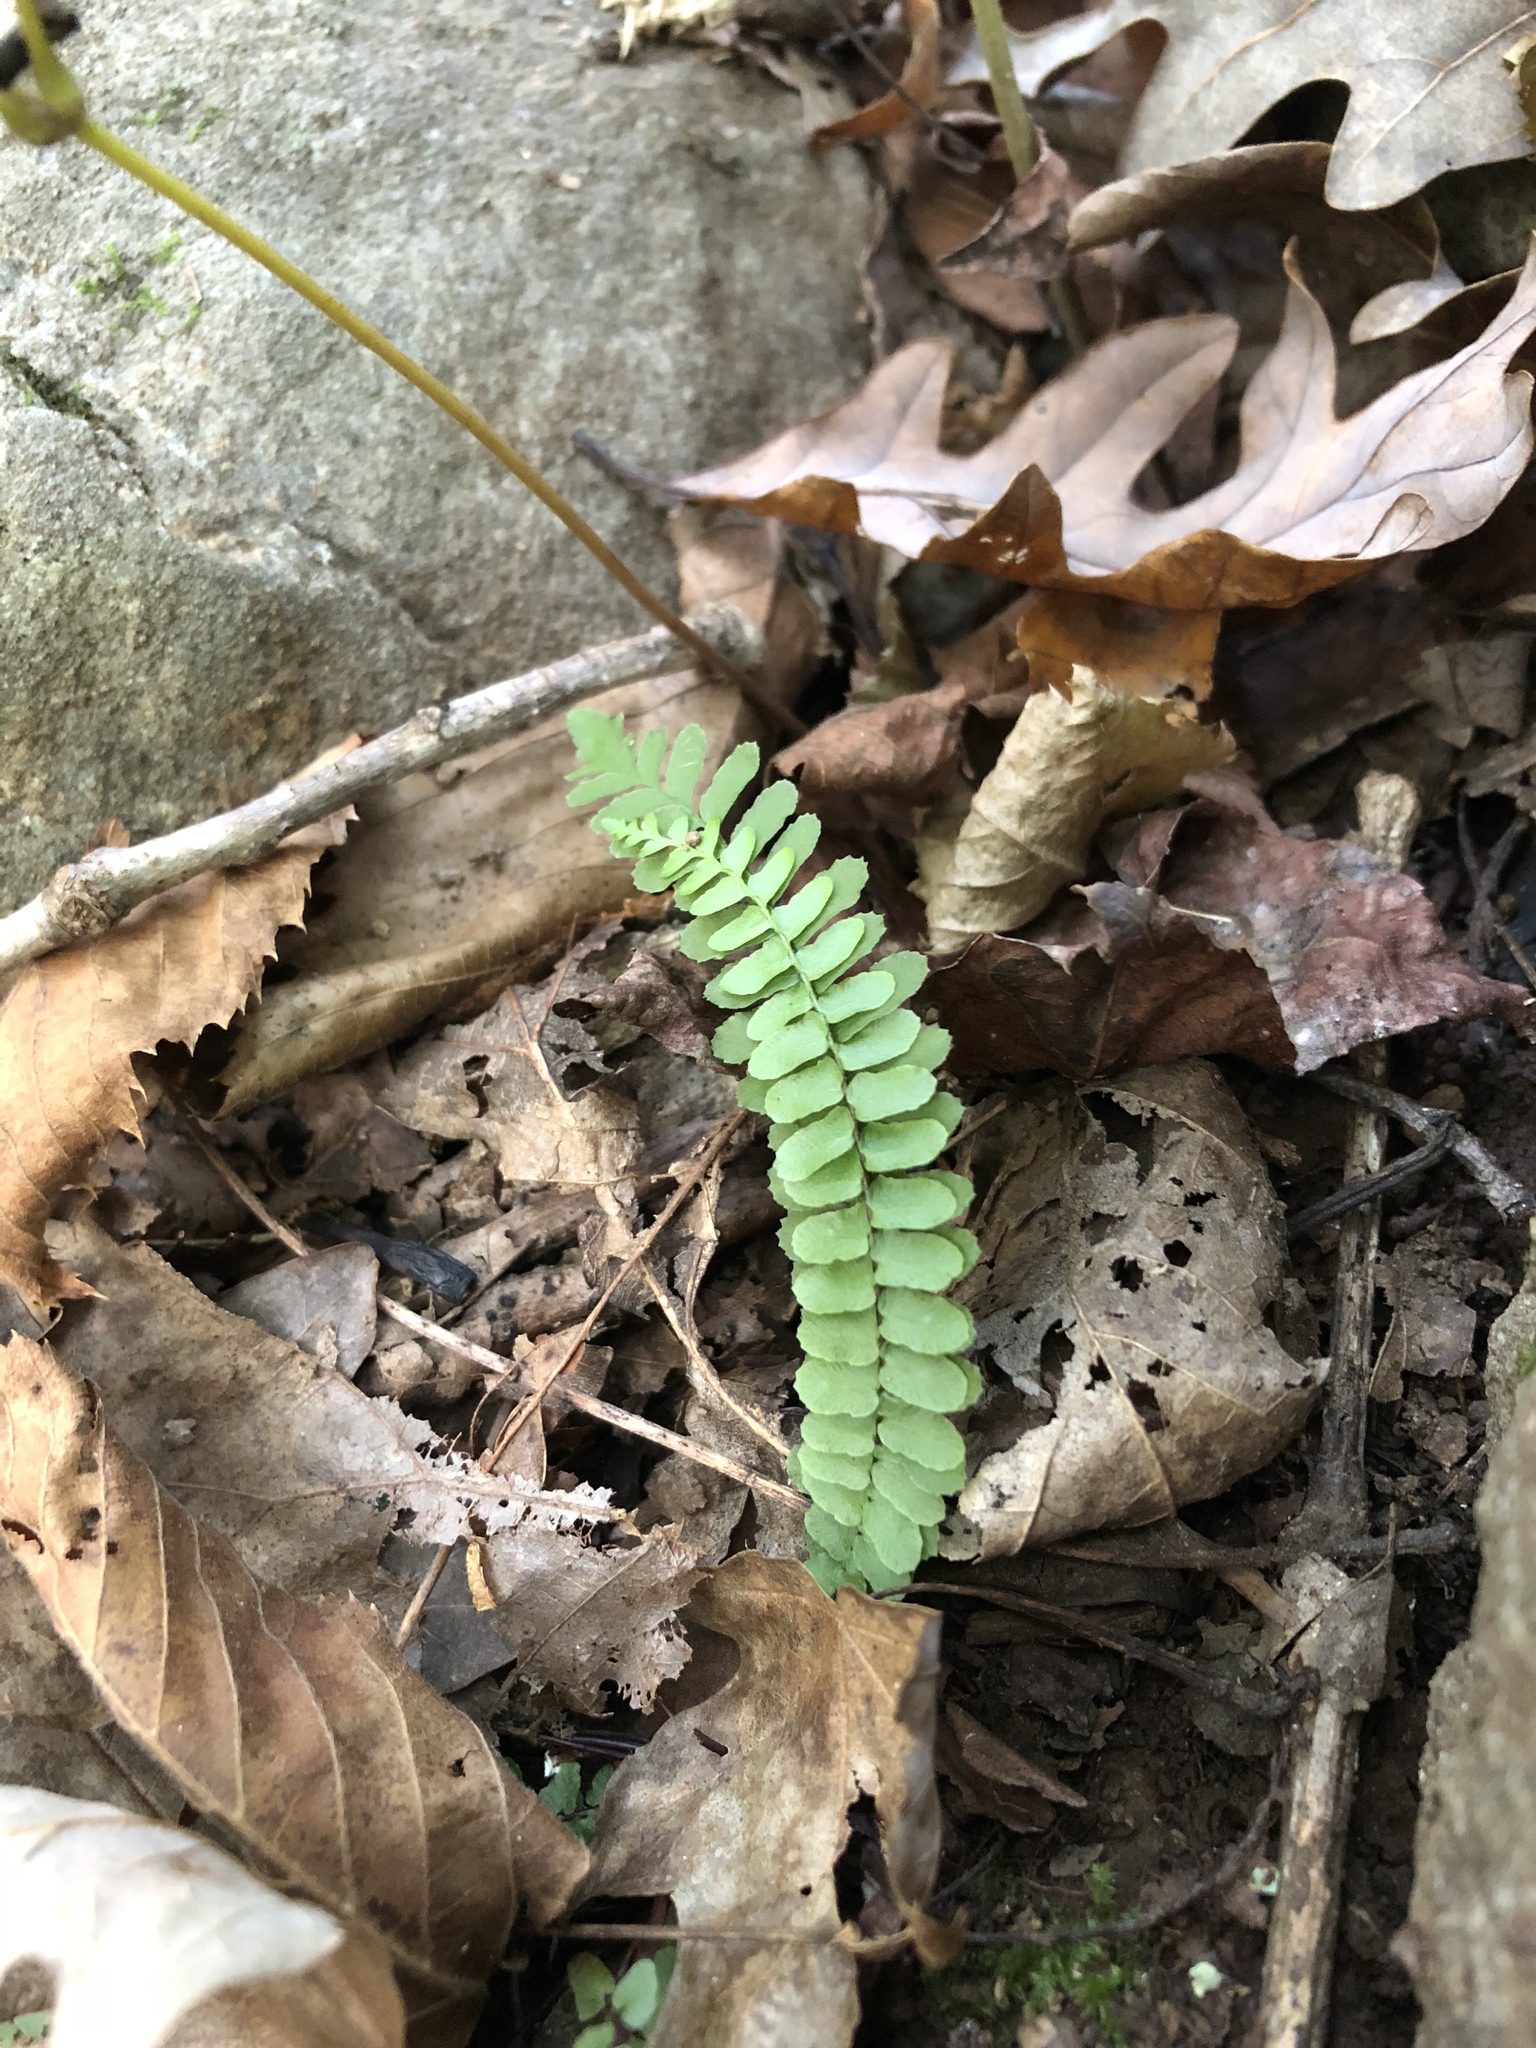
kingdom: Plantae
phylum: Tracheophyta
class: Polypodiopsida
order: Polypodiales
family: Aspleniaceae
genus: Asplenium
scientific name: Asplenium platyneuron
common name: Ebony spleenwort
